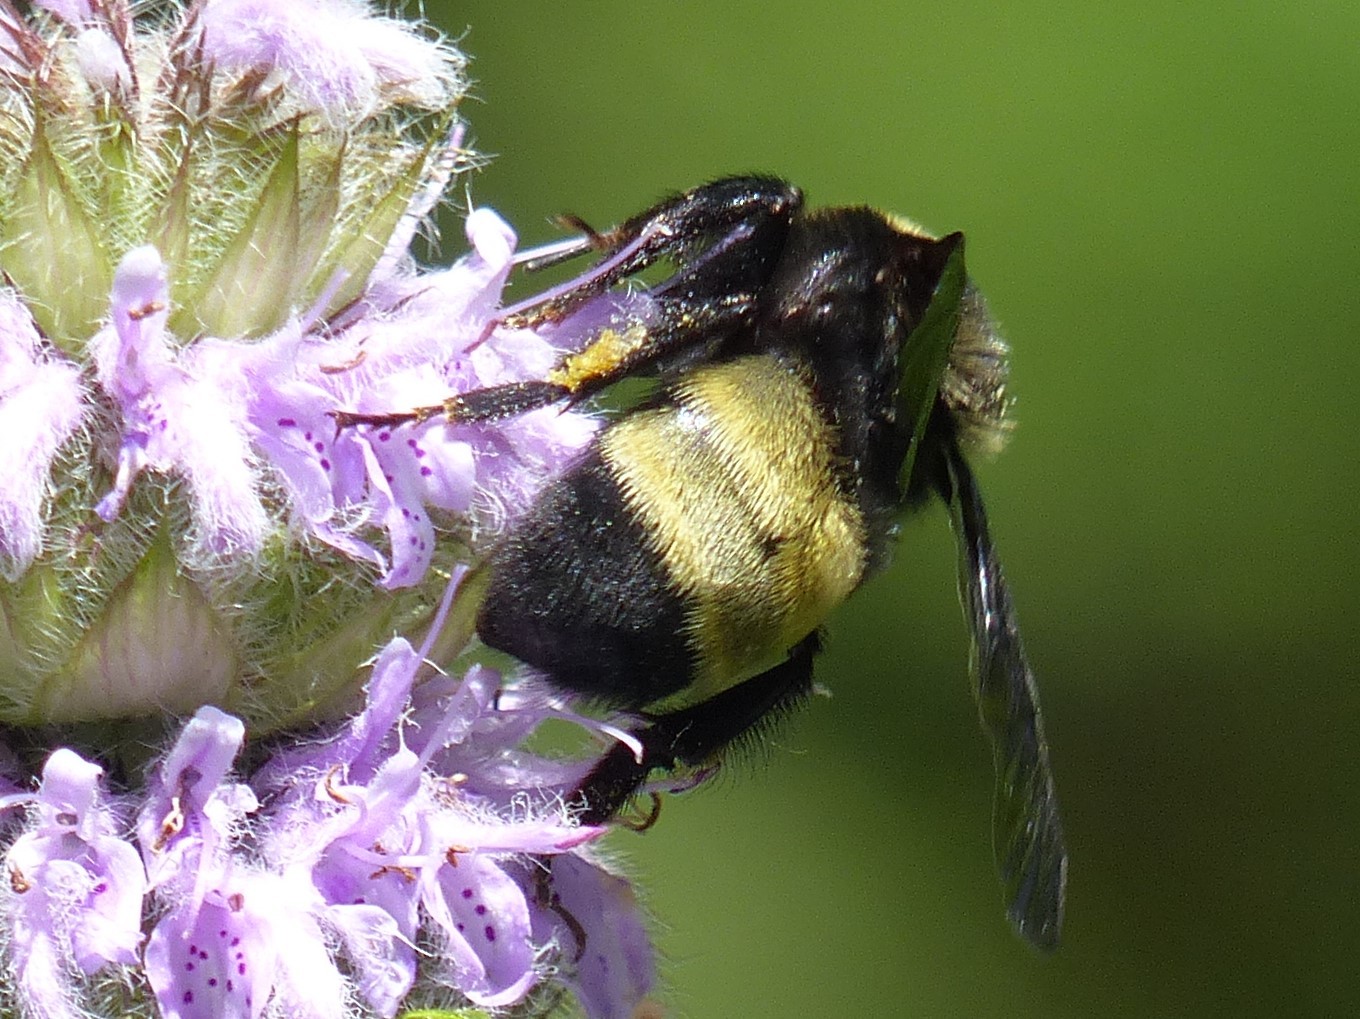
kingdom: Animalia
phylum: Arthropoda
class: Insecta
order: Hymenoptera
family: Apidae
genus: Bombus
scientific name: Bombus auricomus
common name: Black and gold bumble bee
